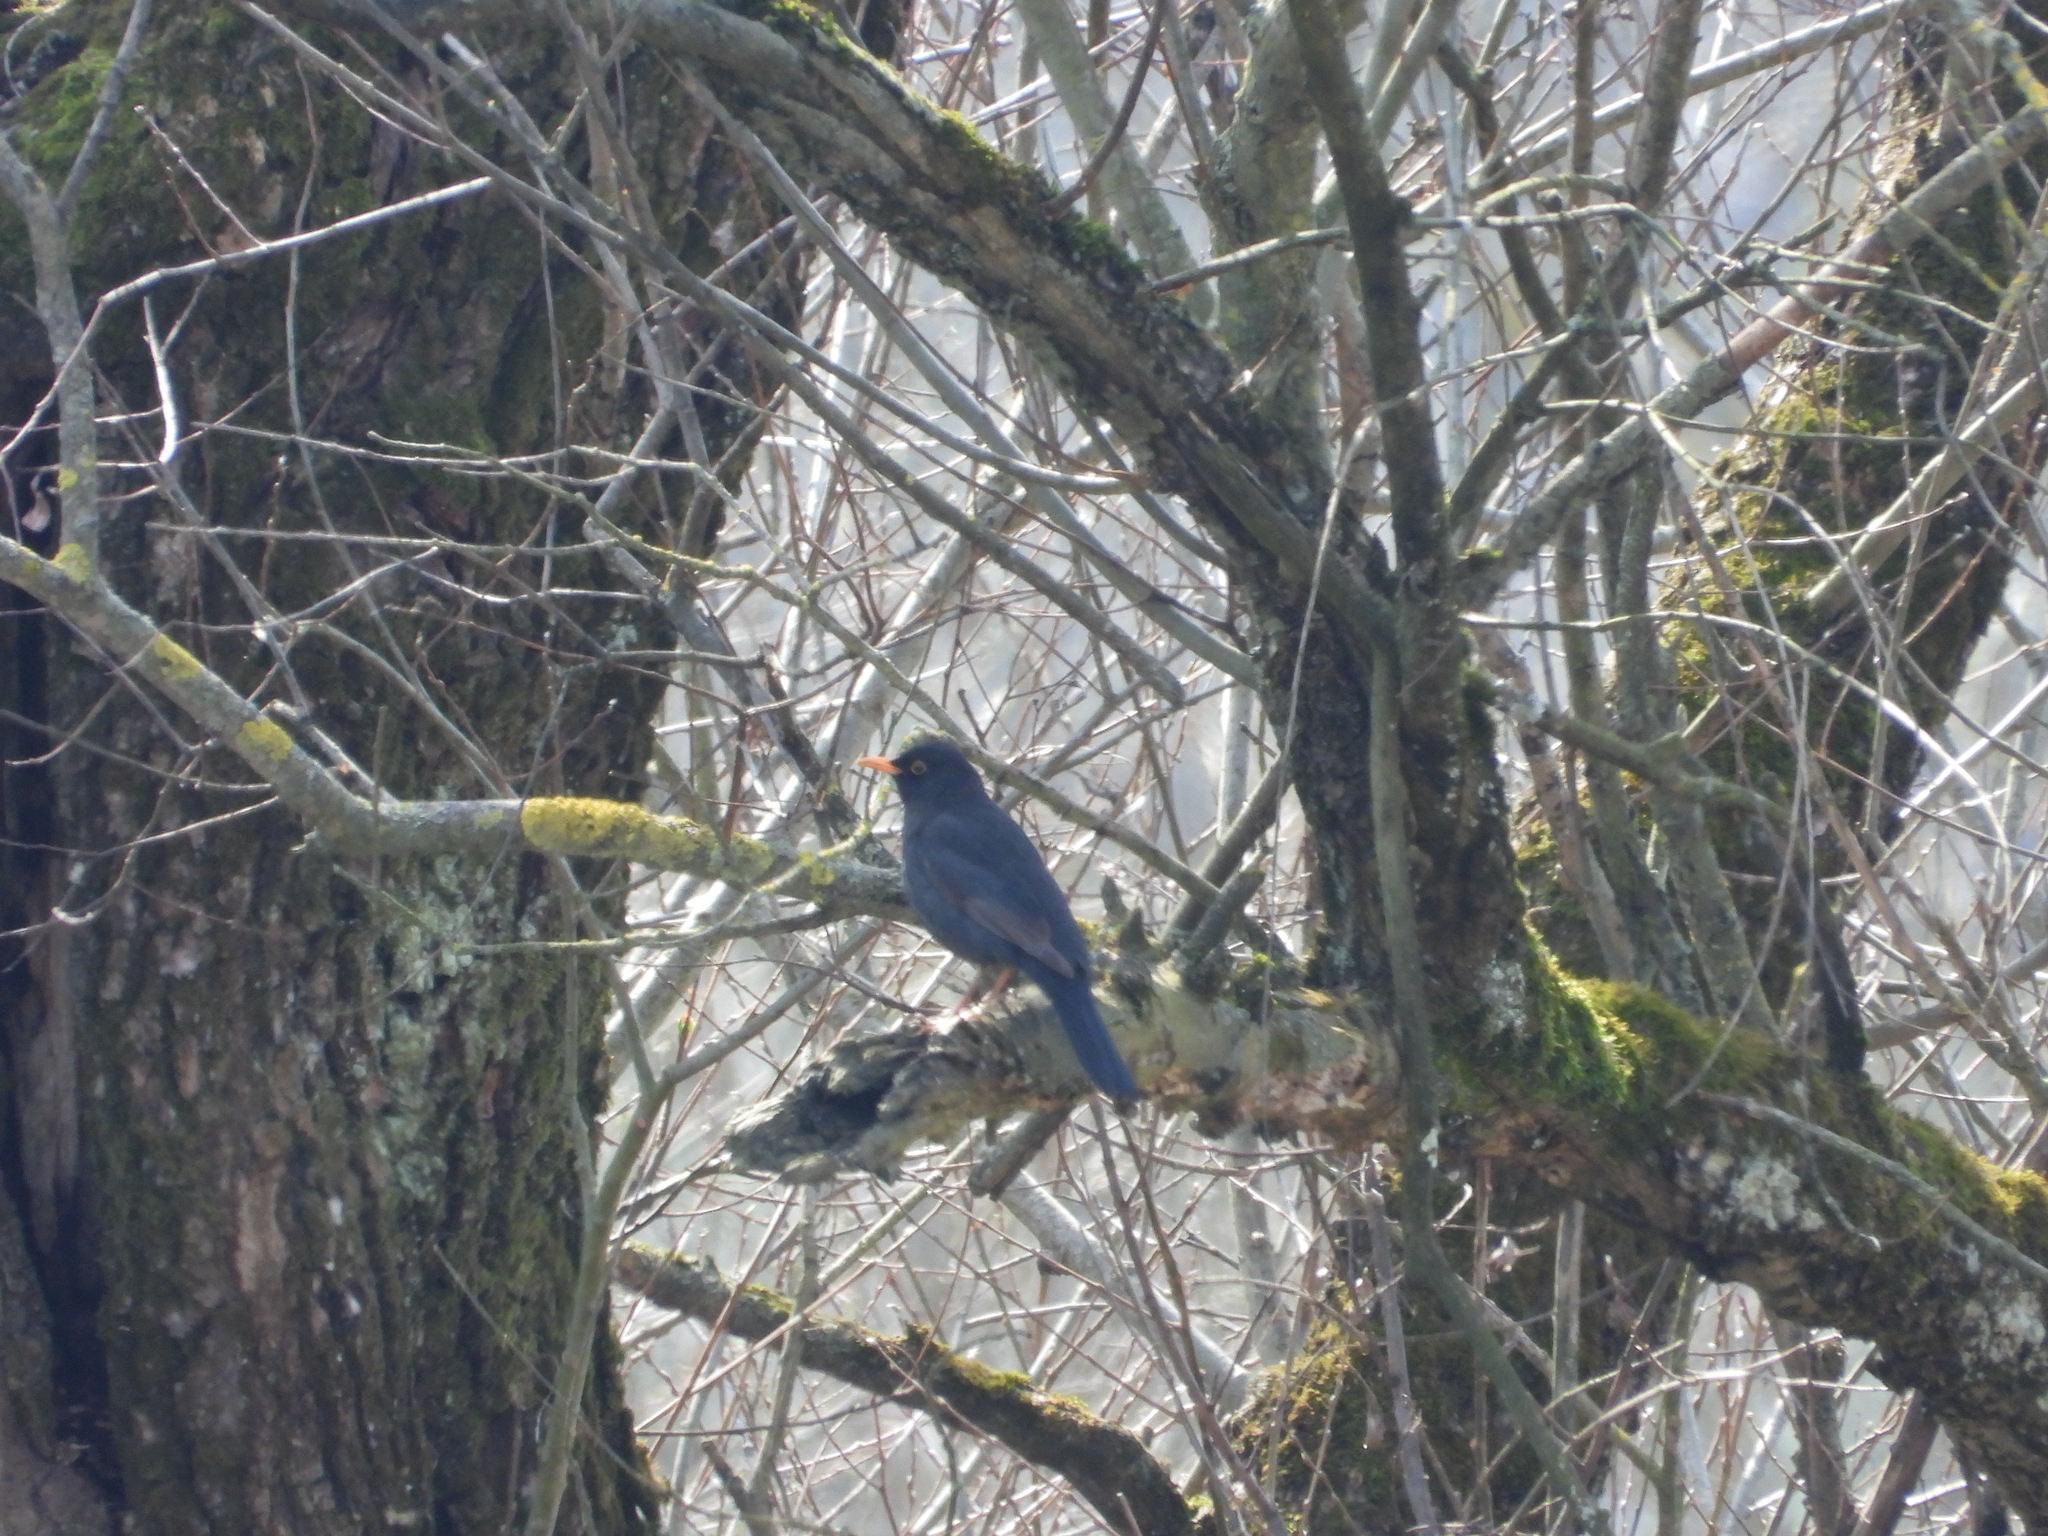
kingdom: Animalia
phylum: Chordata
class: Aves
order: Passeriformes
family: Turdidae
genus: Turdus
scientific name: Turdus merula
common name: Common blackbird
